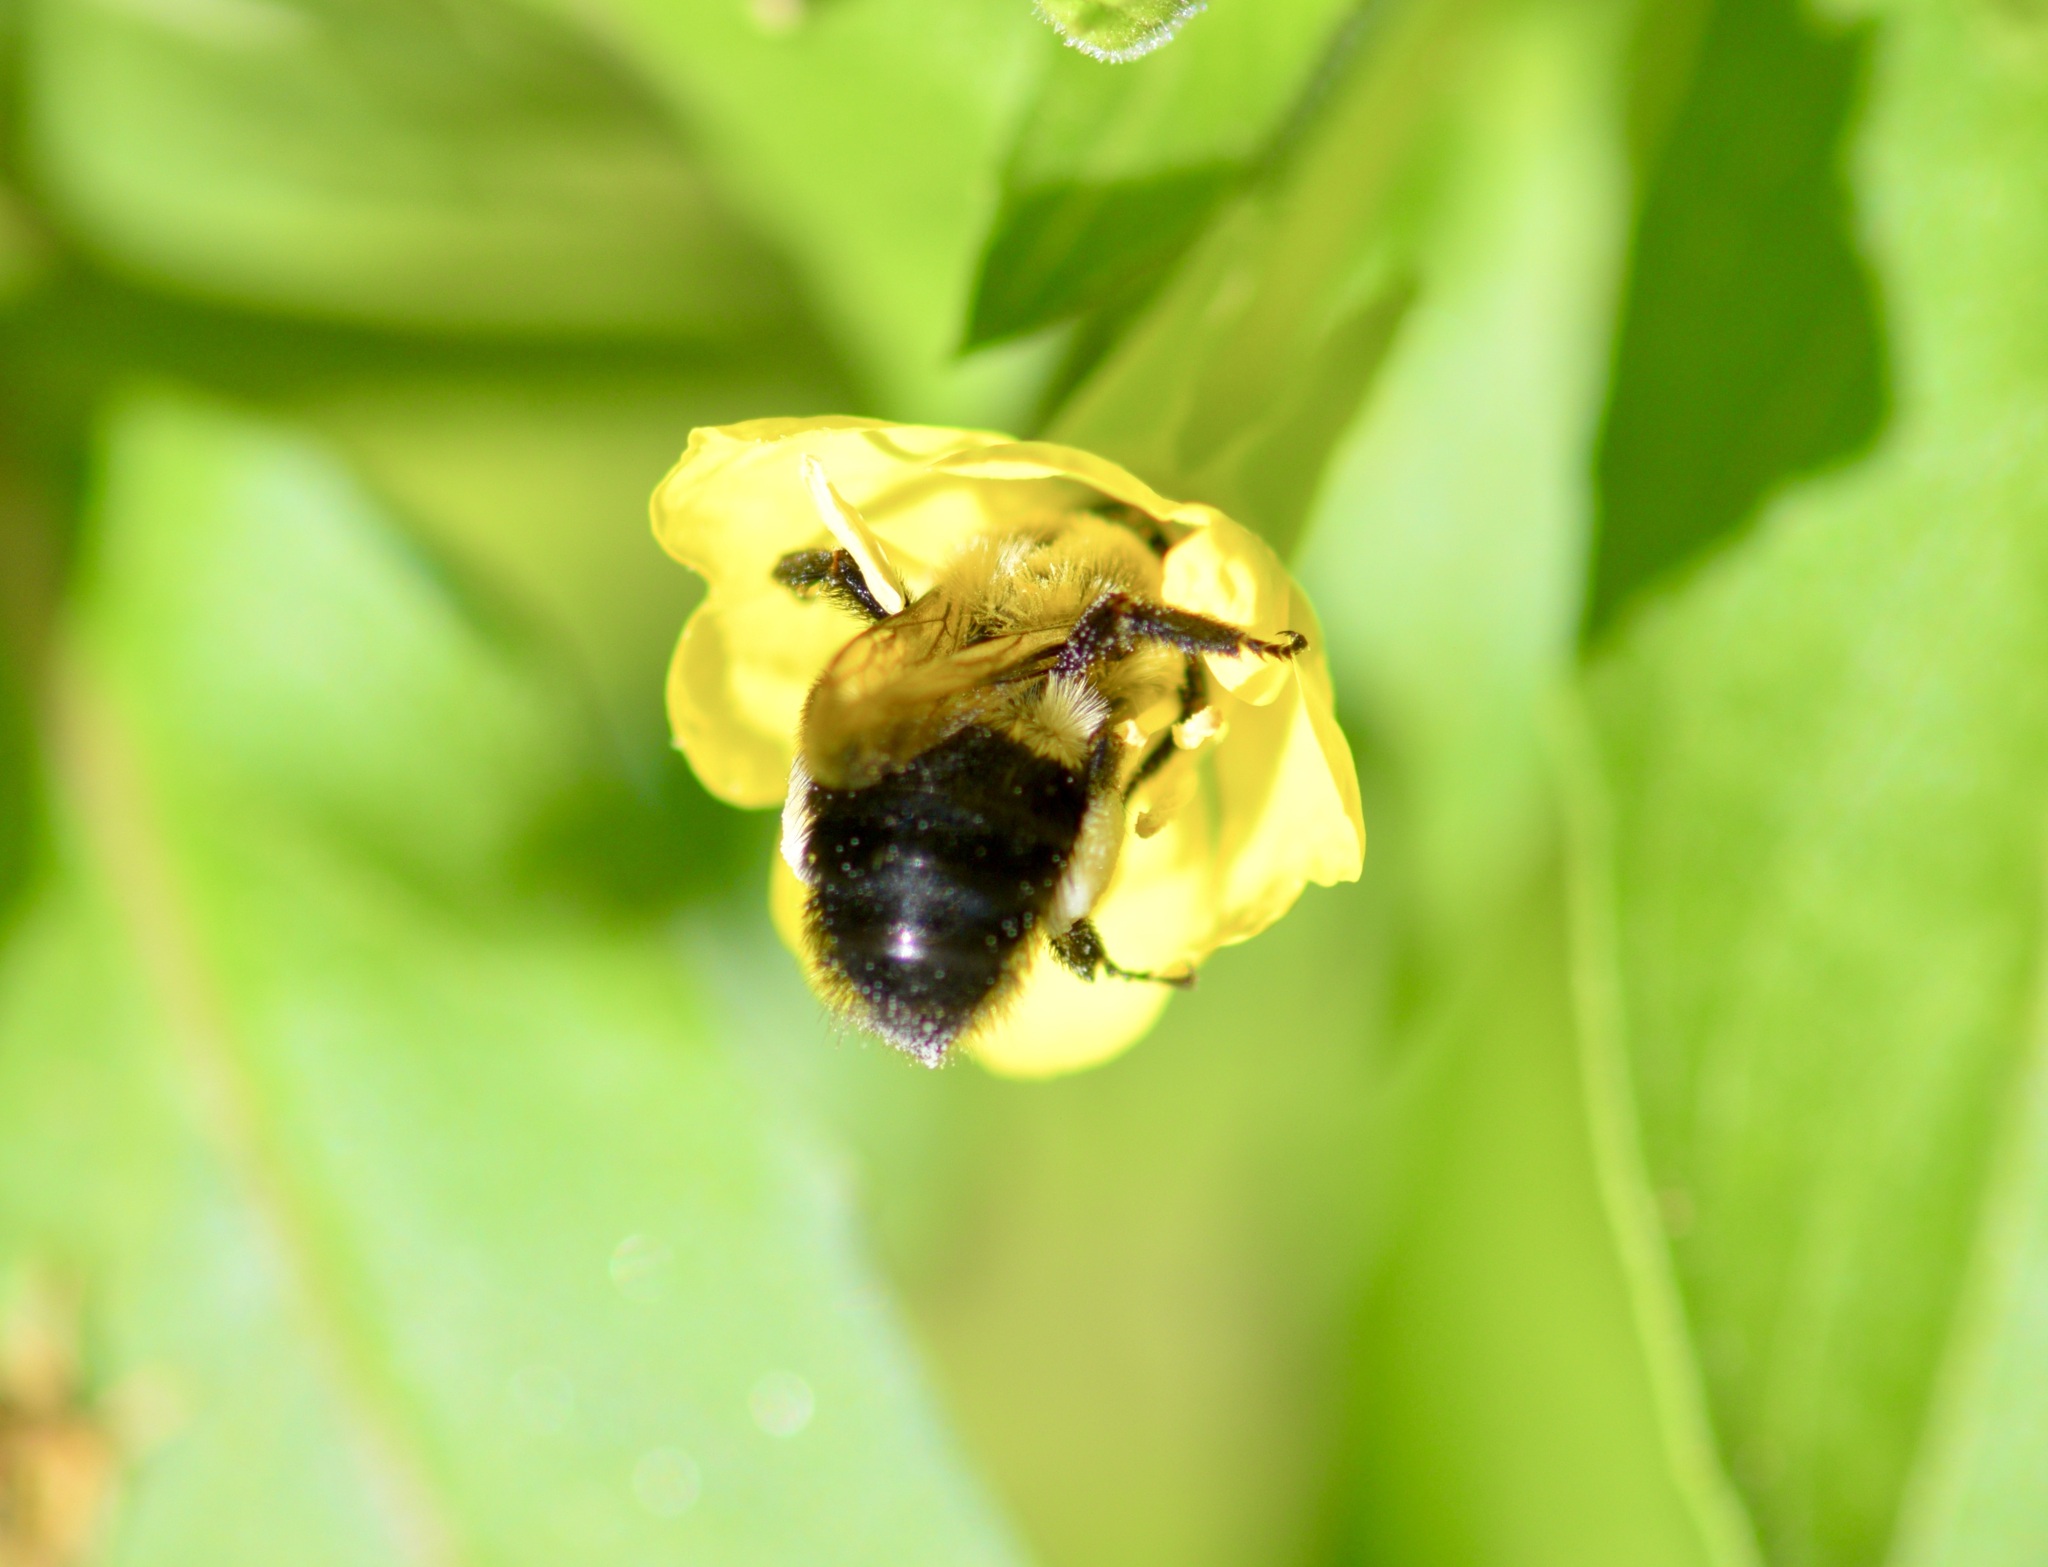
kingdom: Animalia
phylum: Arthropoda
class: Insecta
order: Hymenoptera
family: Apidae
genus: Bombus
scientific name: Bombus impatiens
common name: Common eastern bumble bee
